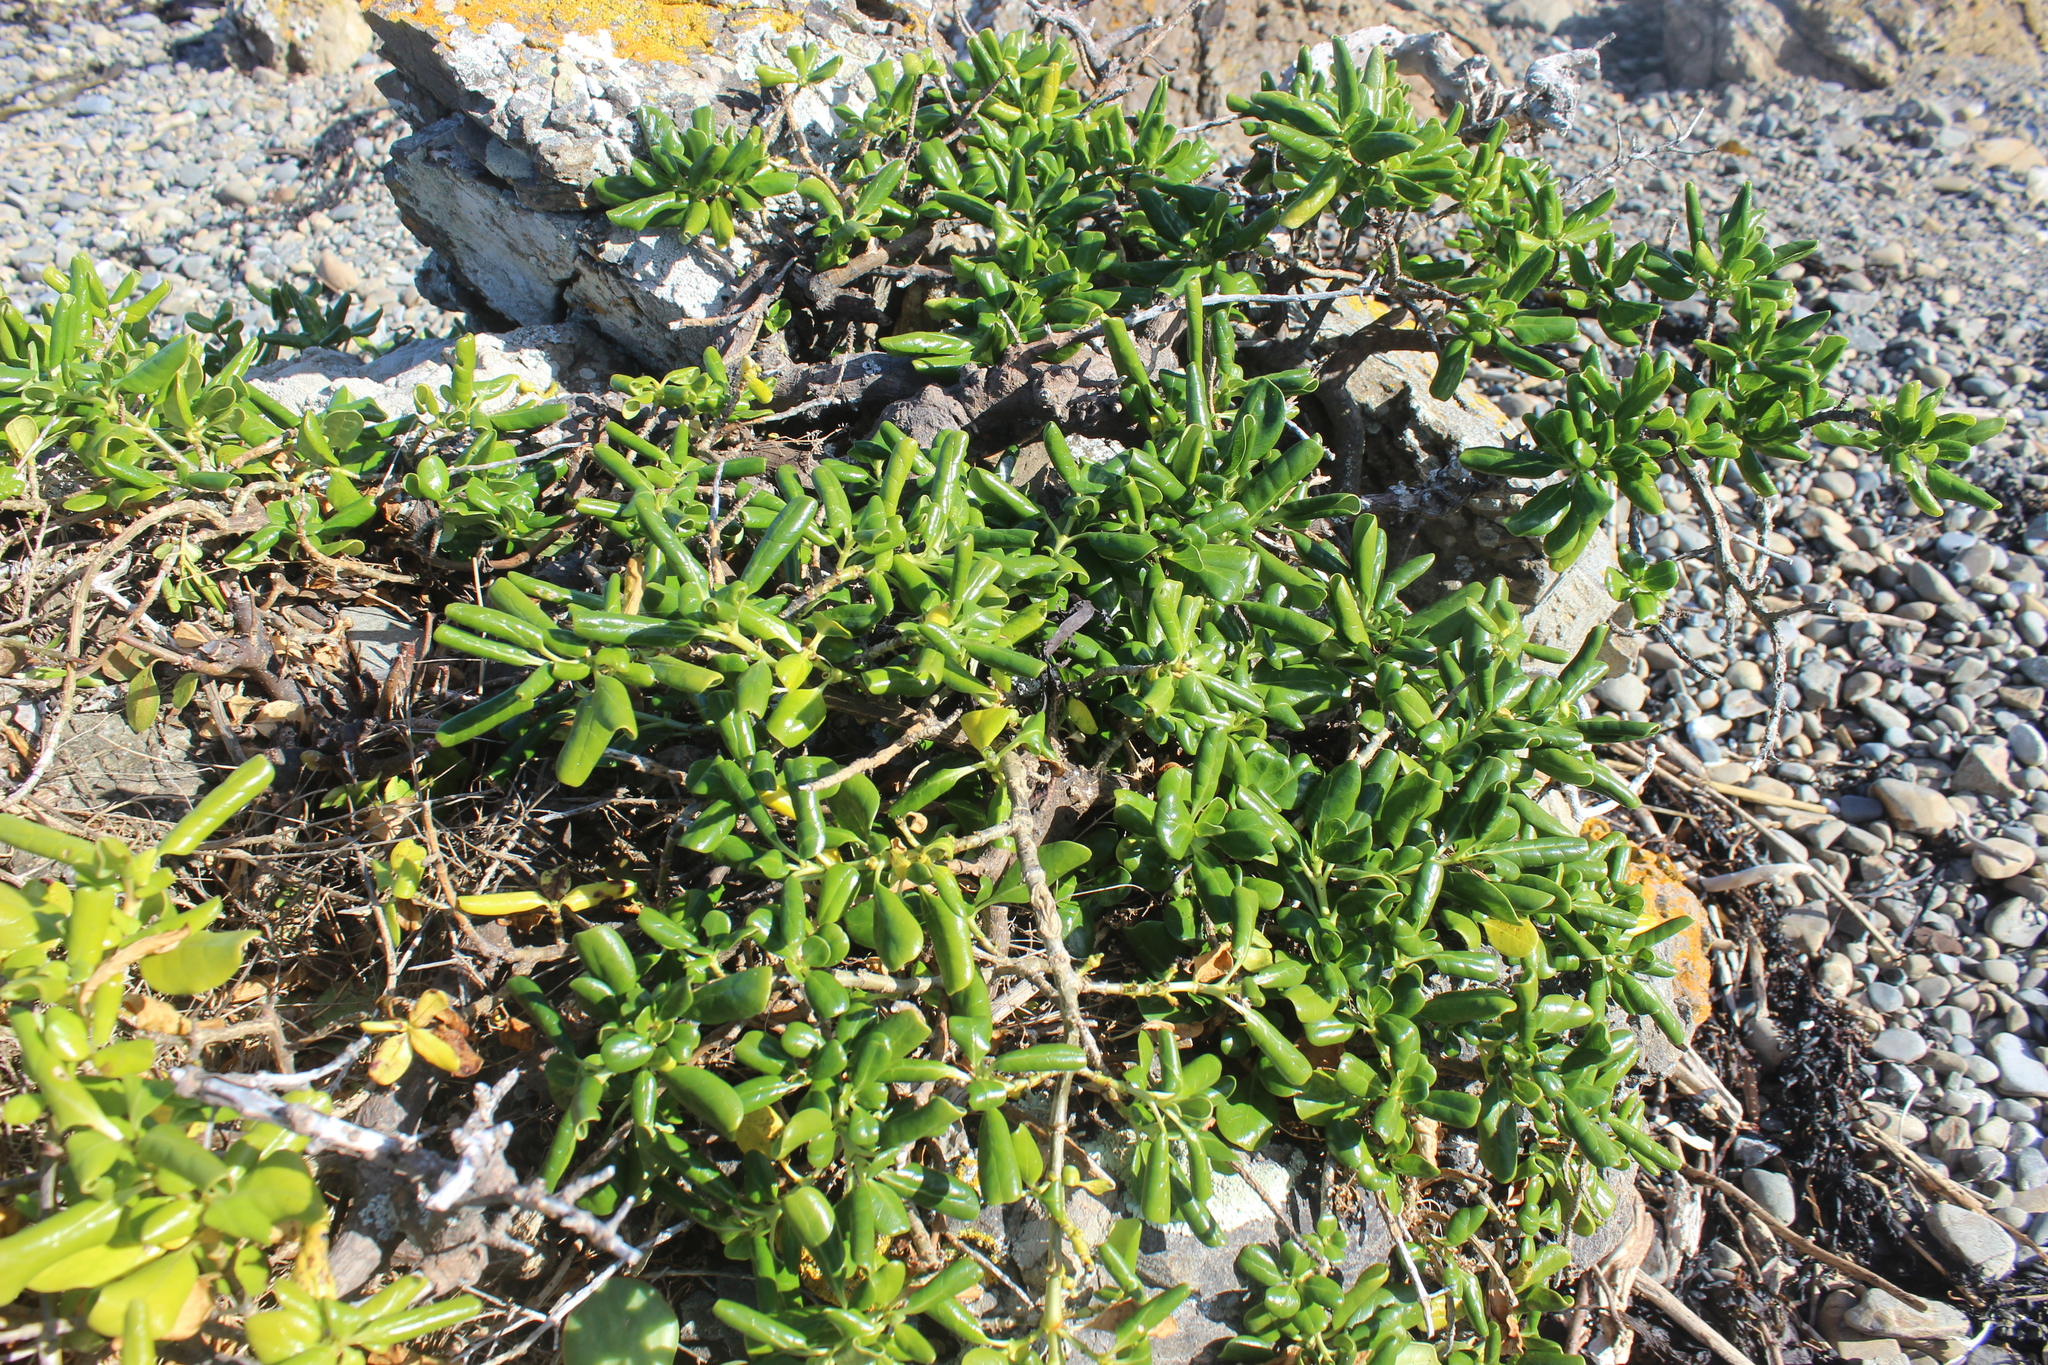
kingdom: Plantae
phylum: Tracheophyta
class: Magnoliopsida
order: Gentianales
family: Rubiaceae
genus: Coprosma
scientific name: Coprosma repens
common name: Tree bedstraw
